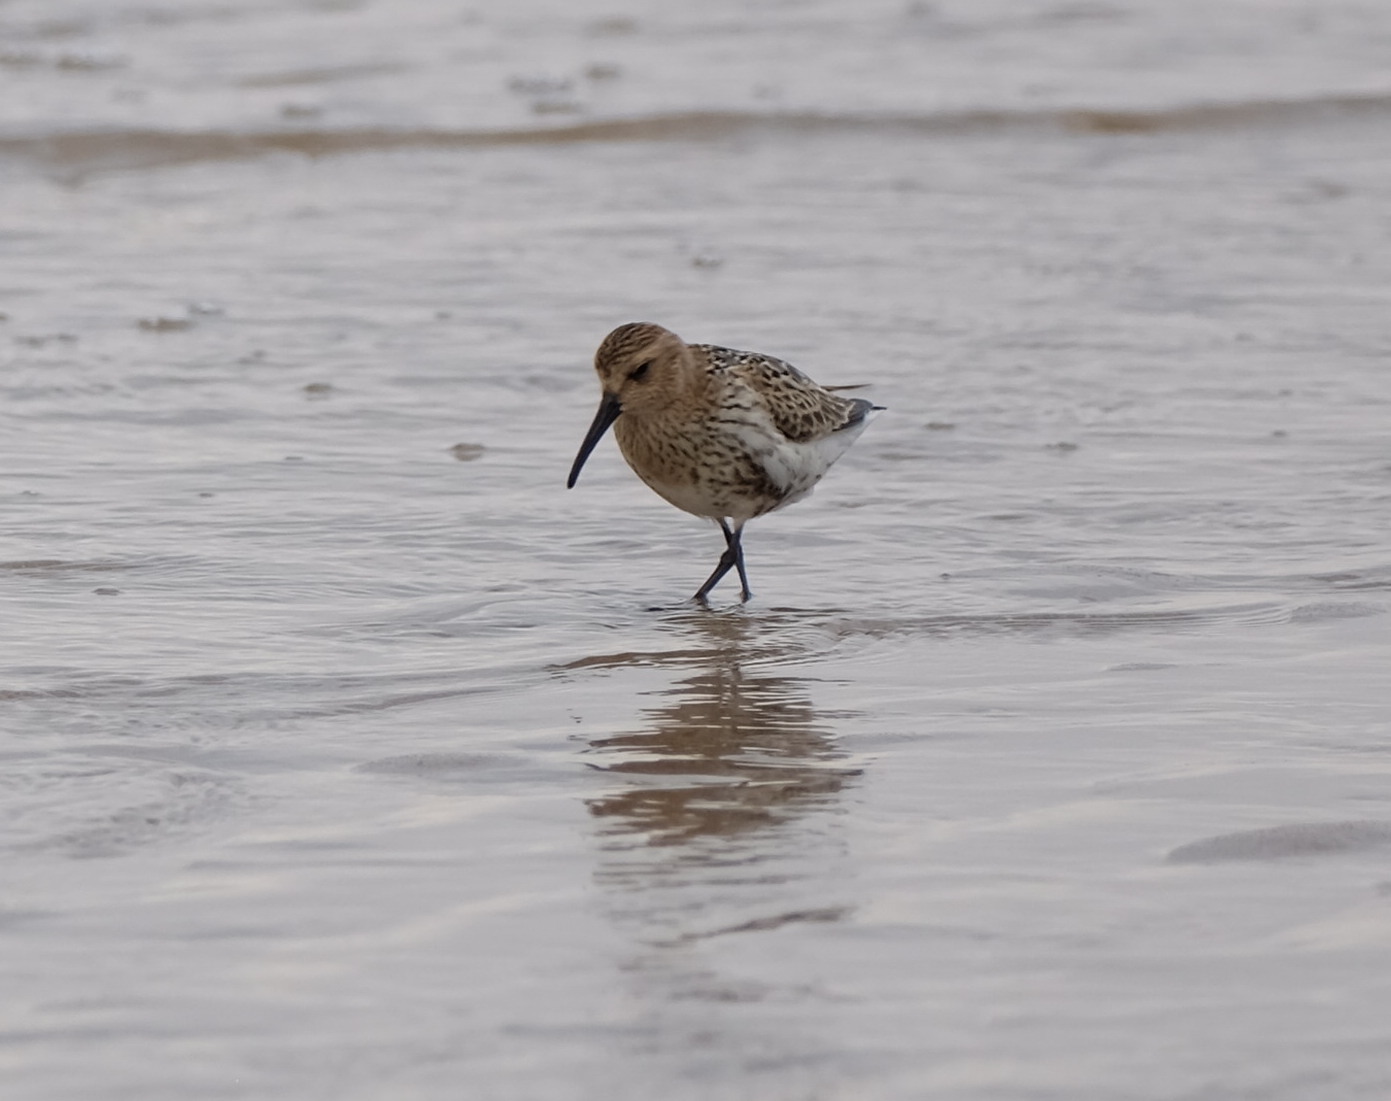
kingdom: Animalia
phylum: Chordata
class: Aves
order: Charadriiformes
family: Scolopacidae
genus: Calidris
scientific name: Calidris alpina
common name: Dunlin
